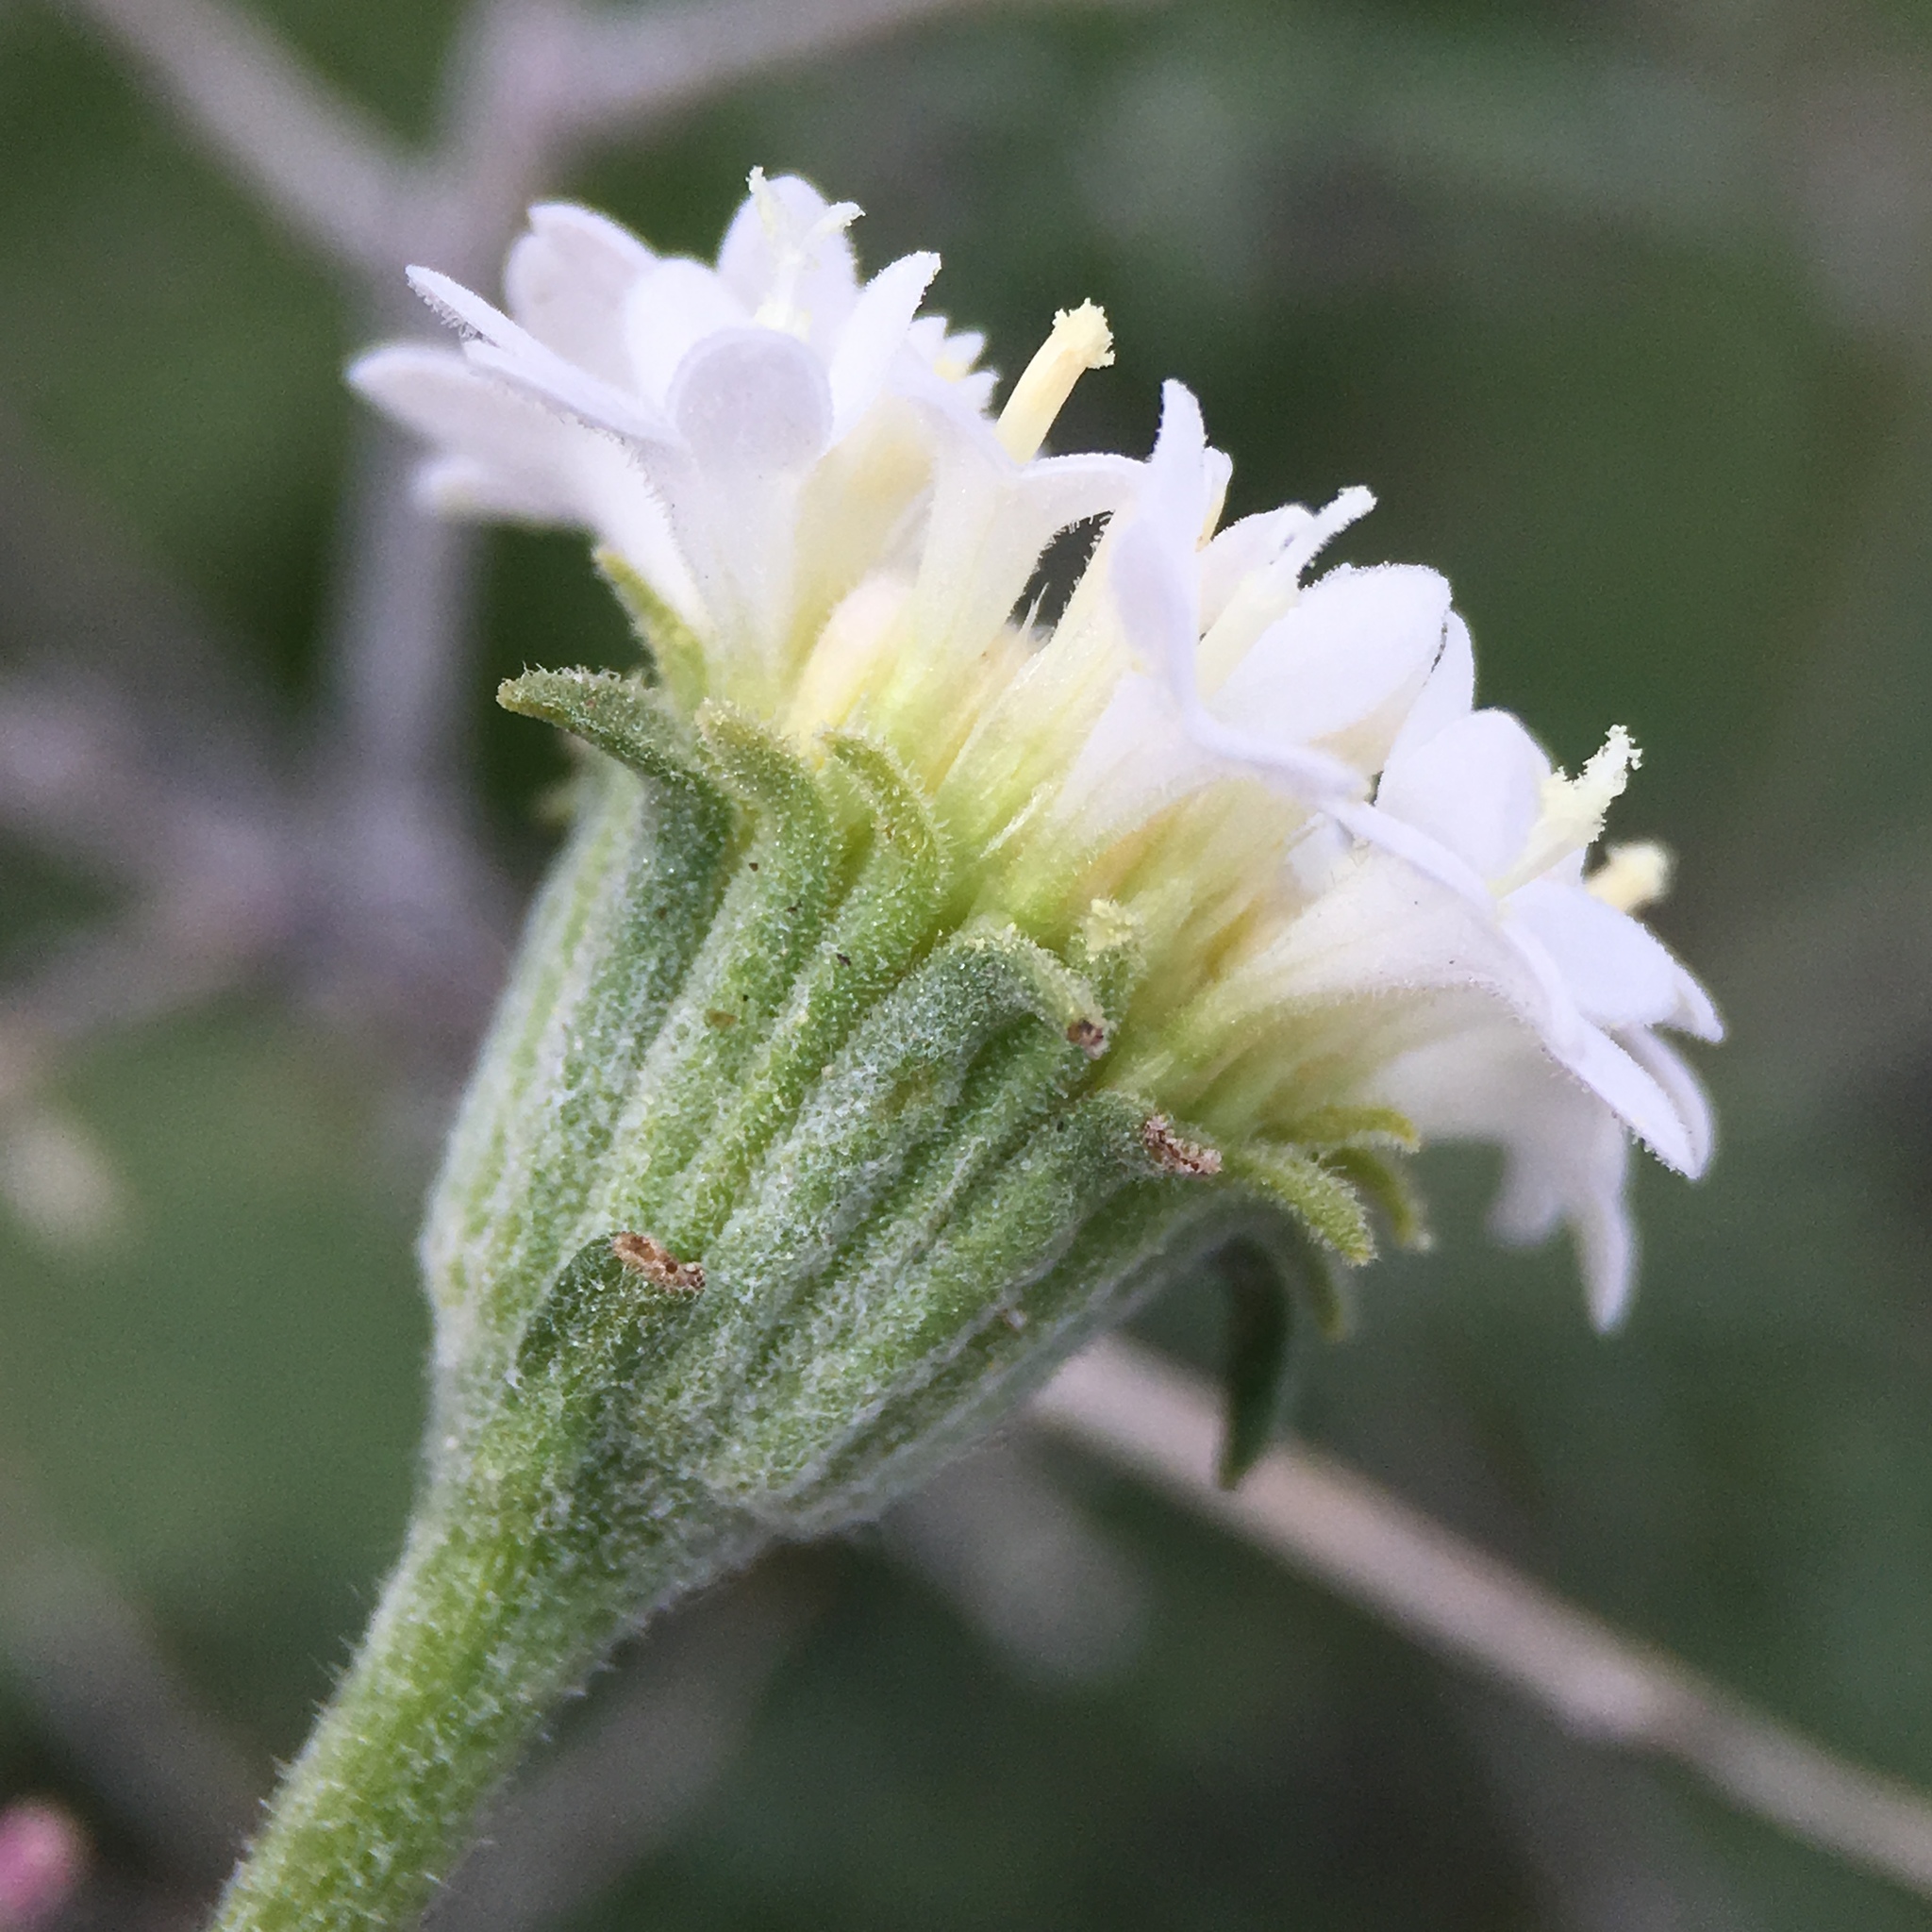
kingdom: Plantae
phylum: Tracheophyta
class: Magnoliopsida
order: Asterales
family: Asteraceae
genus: Chaenactis
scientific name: Chaenactis stevioides
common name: Desert pincushion
